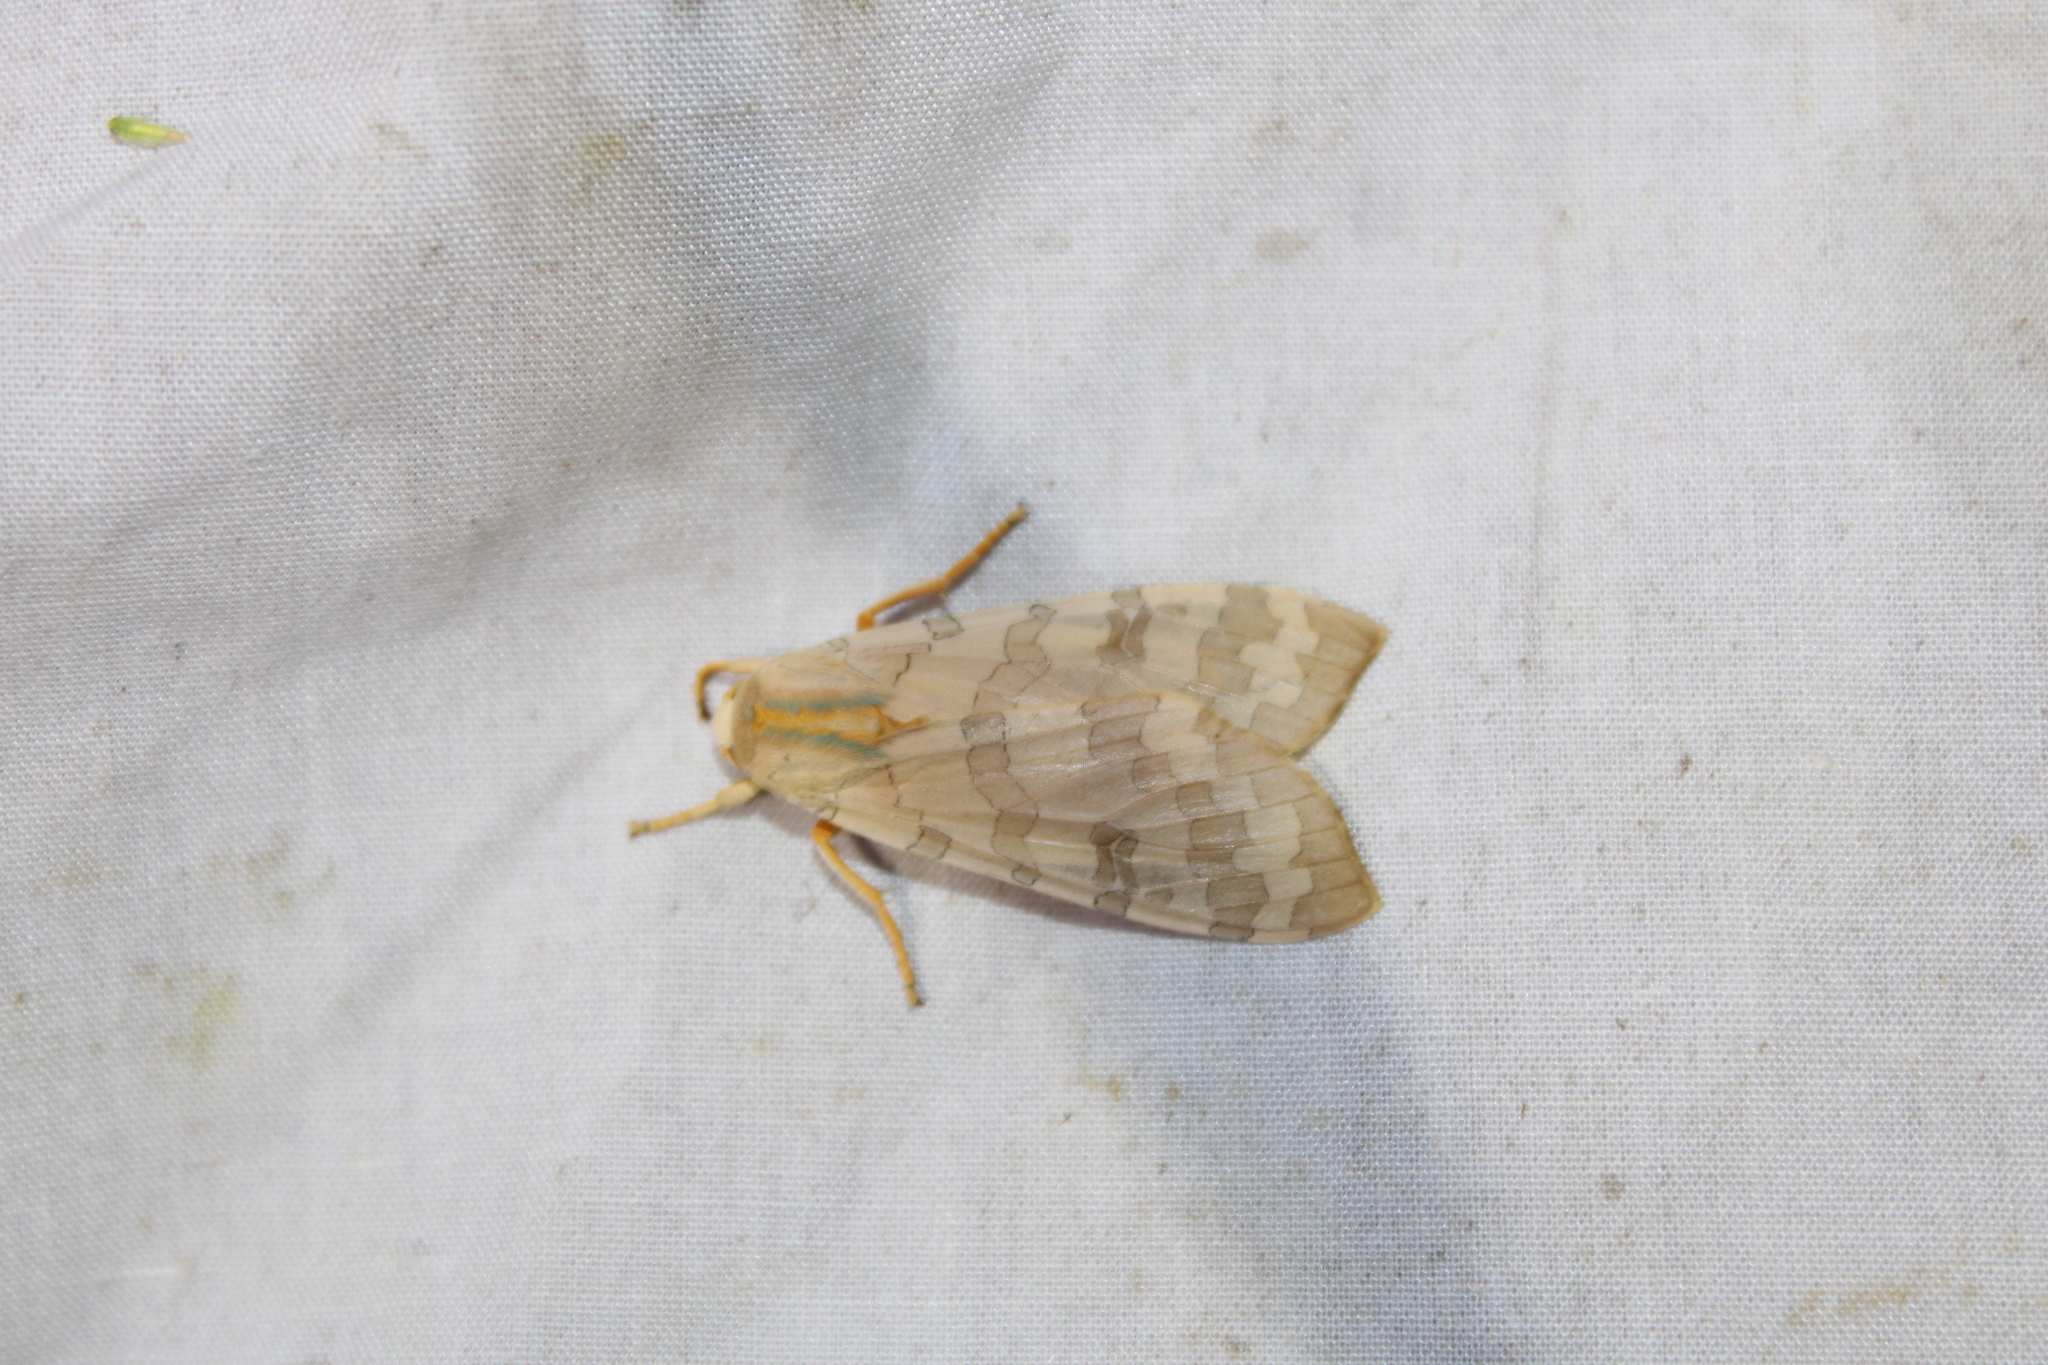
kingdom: Animalia
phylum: Arthropoda
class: Insecta
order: Lepidoptera
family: Erebidae
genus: Halysidota
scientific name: Halysidota
